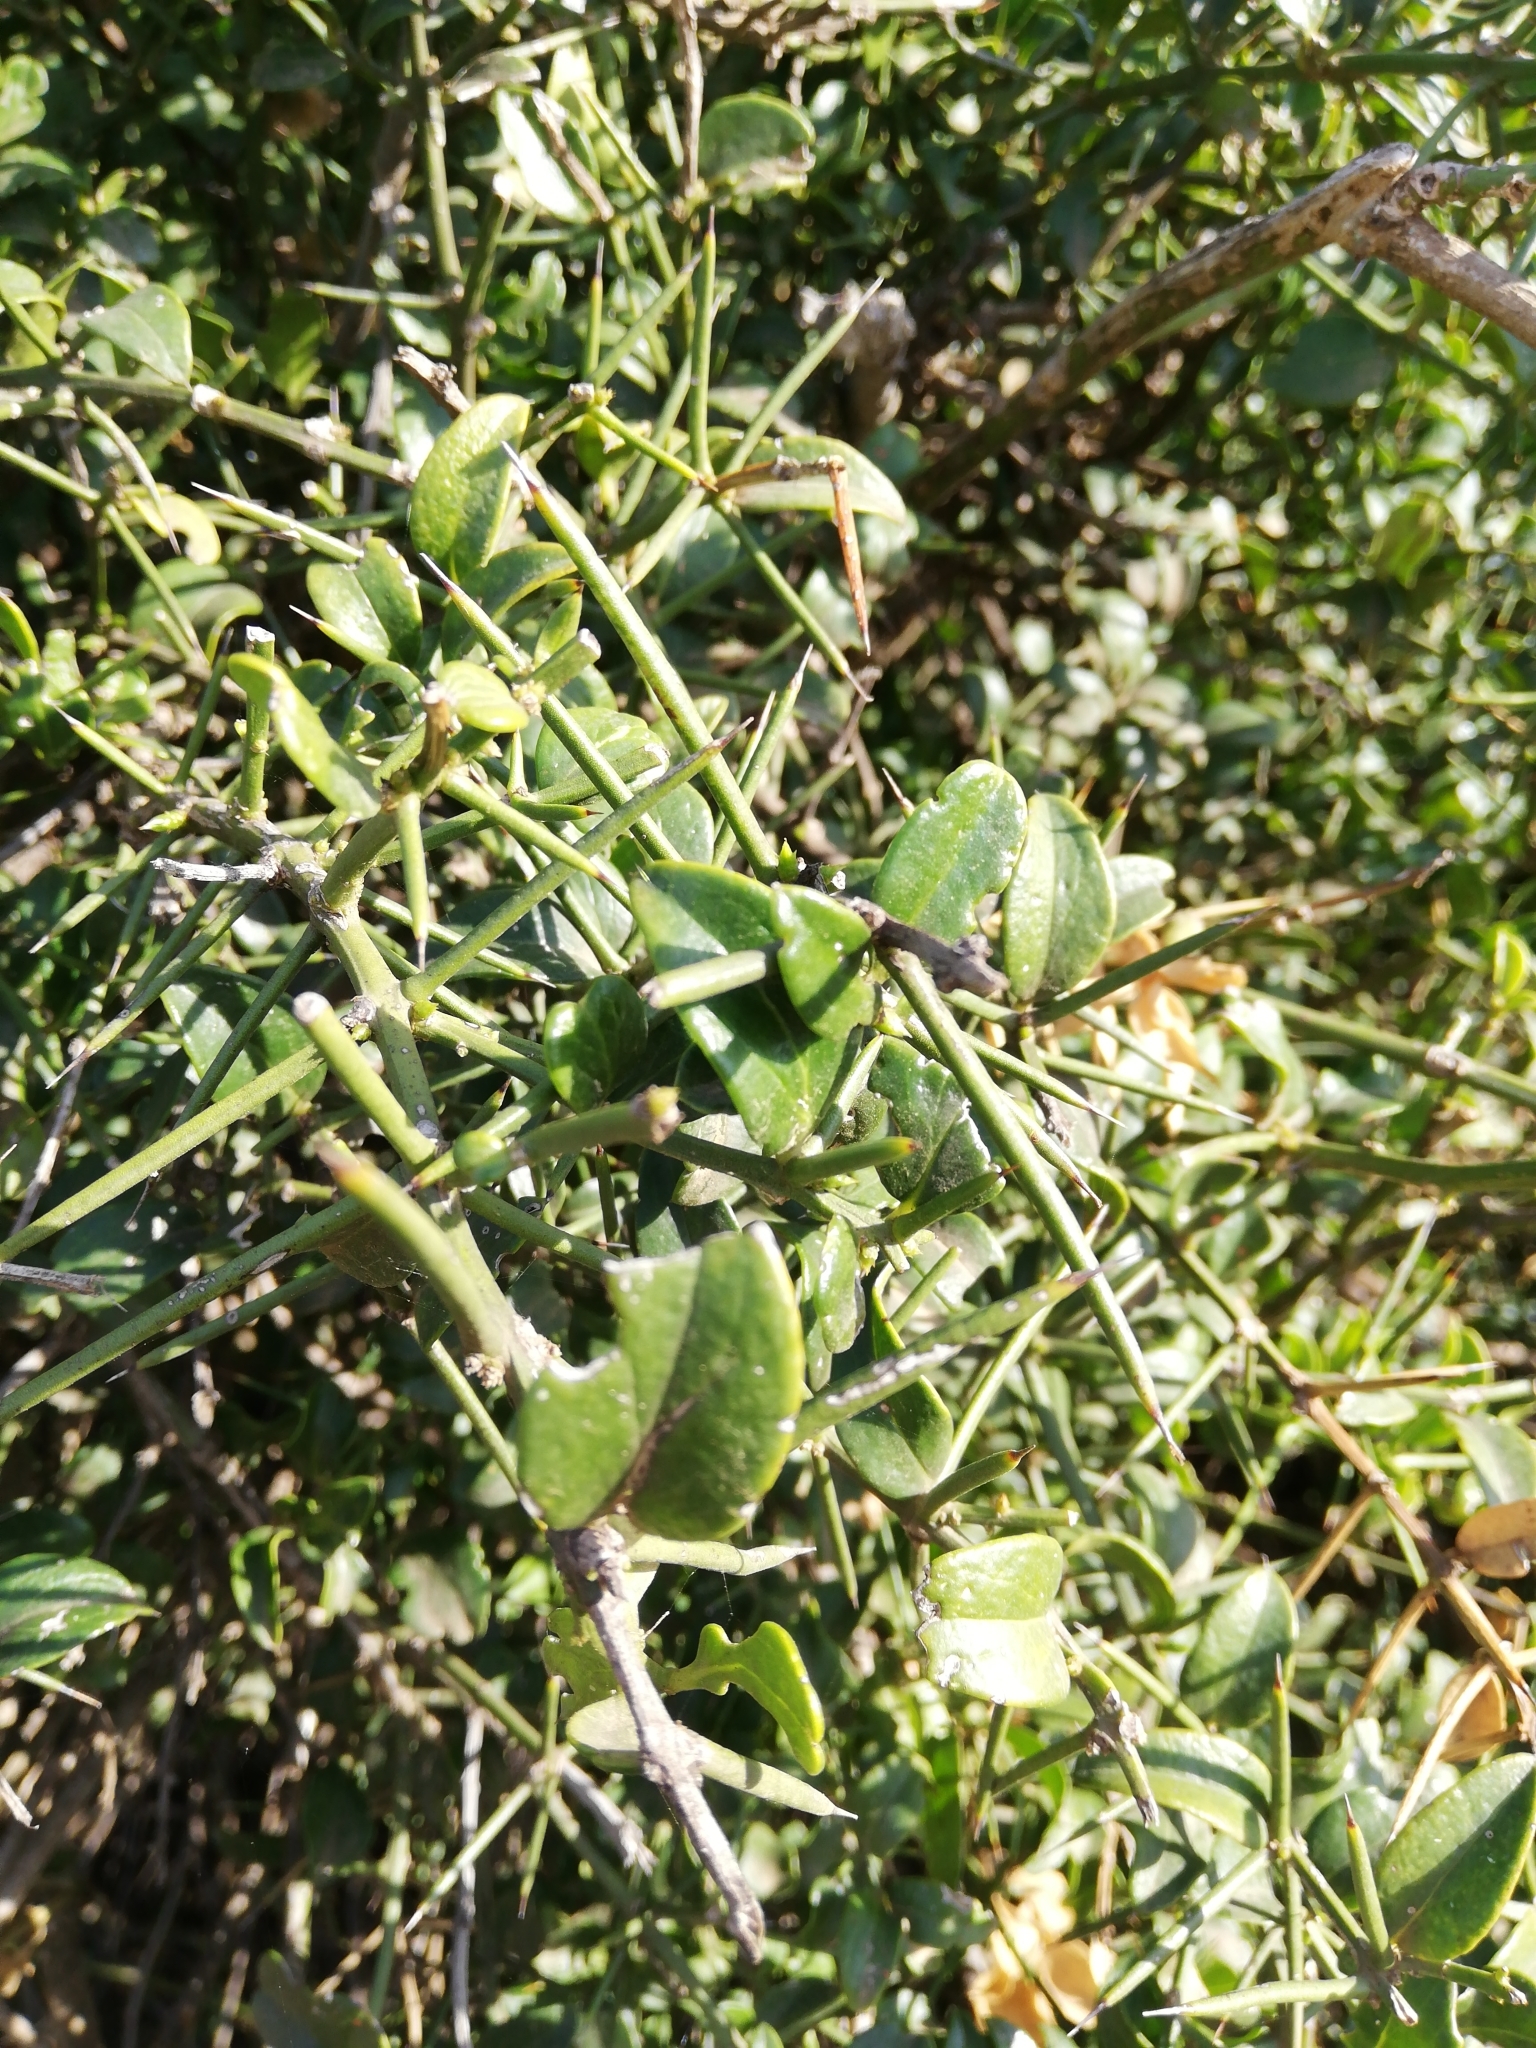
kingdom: Plantae
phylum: Tracheophyta
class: Magnoliopsida
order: Brassicales
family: Salvadoraceae
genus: Azima
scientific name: Azima tetracantha
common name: Needle bush
